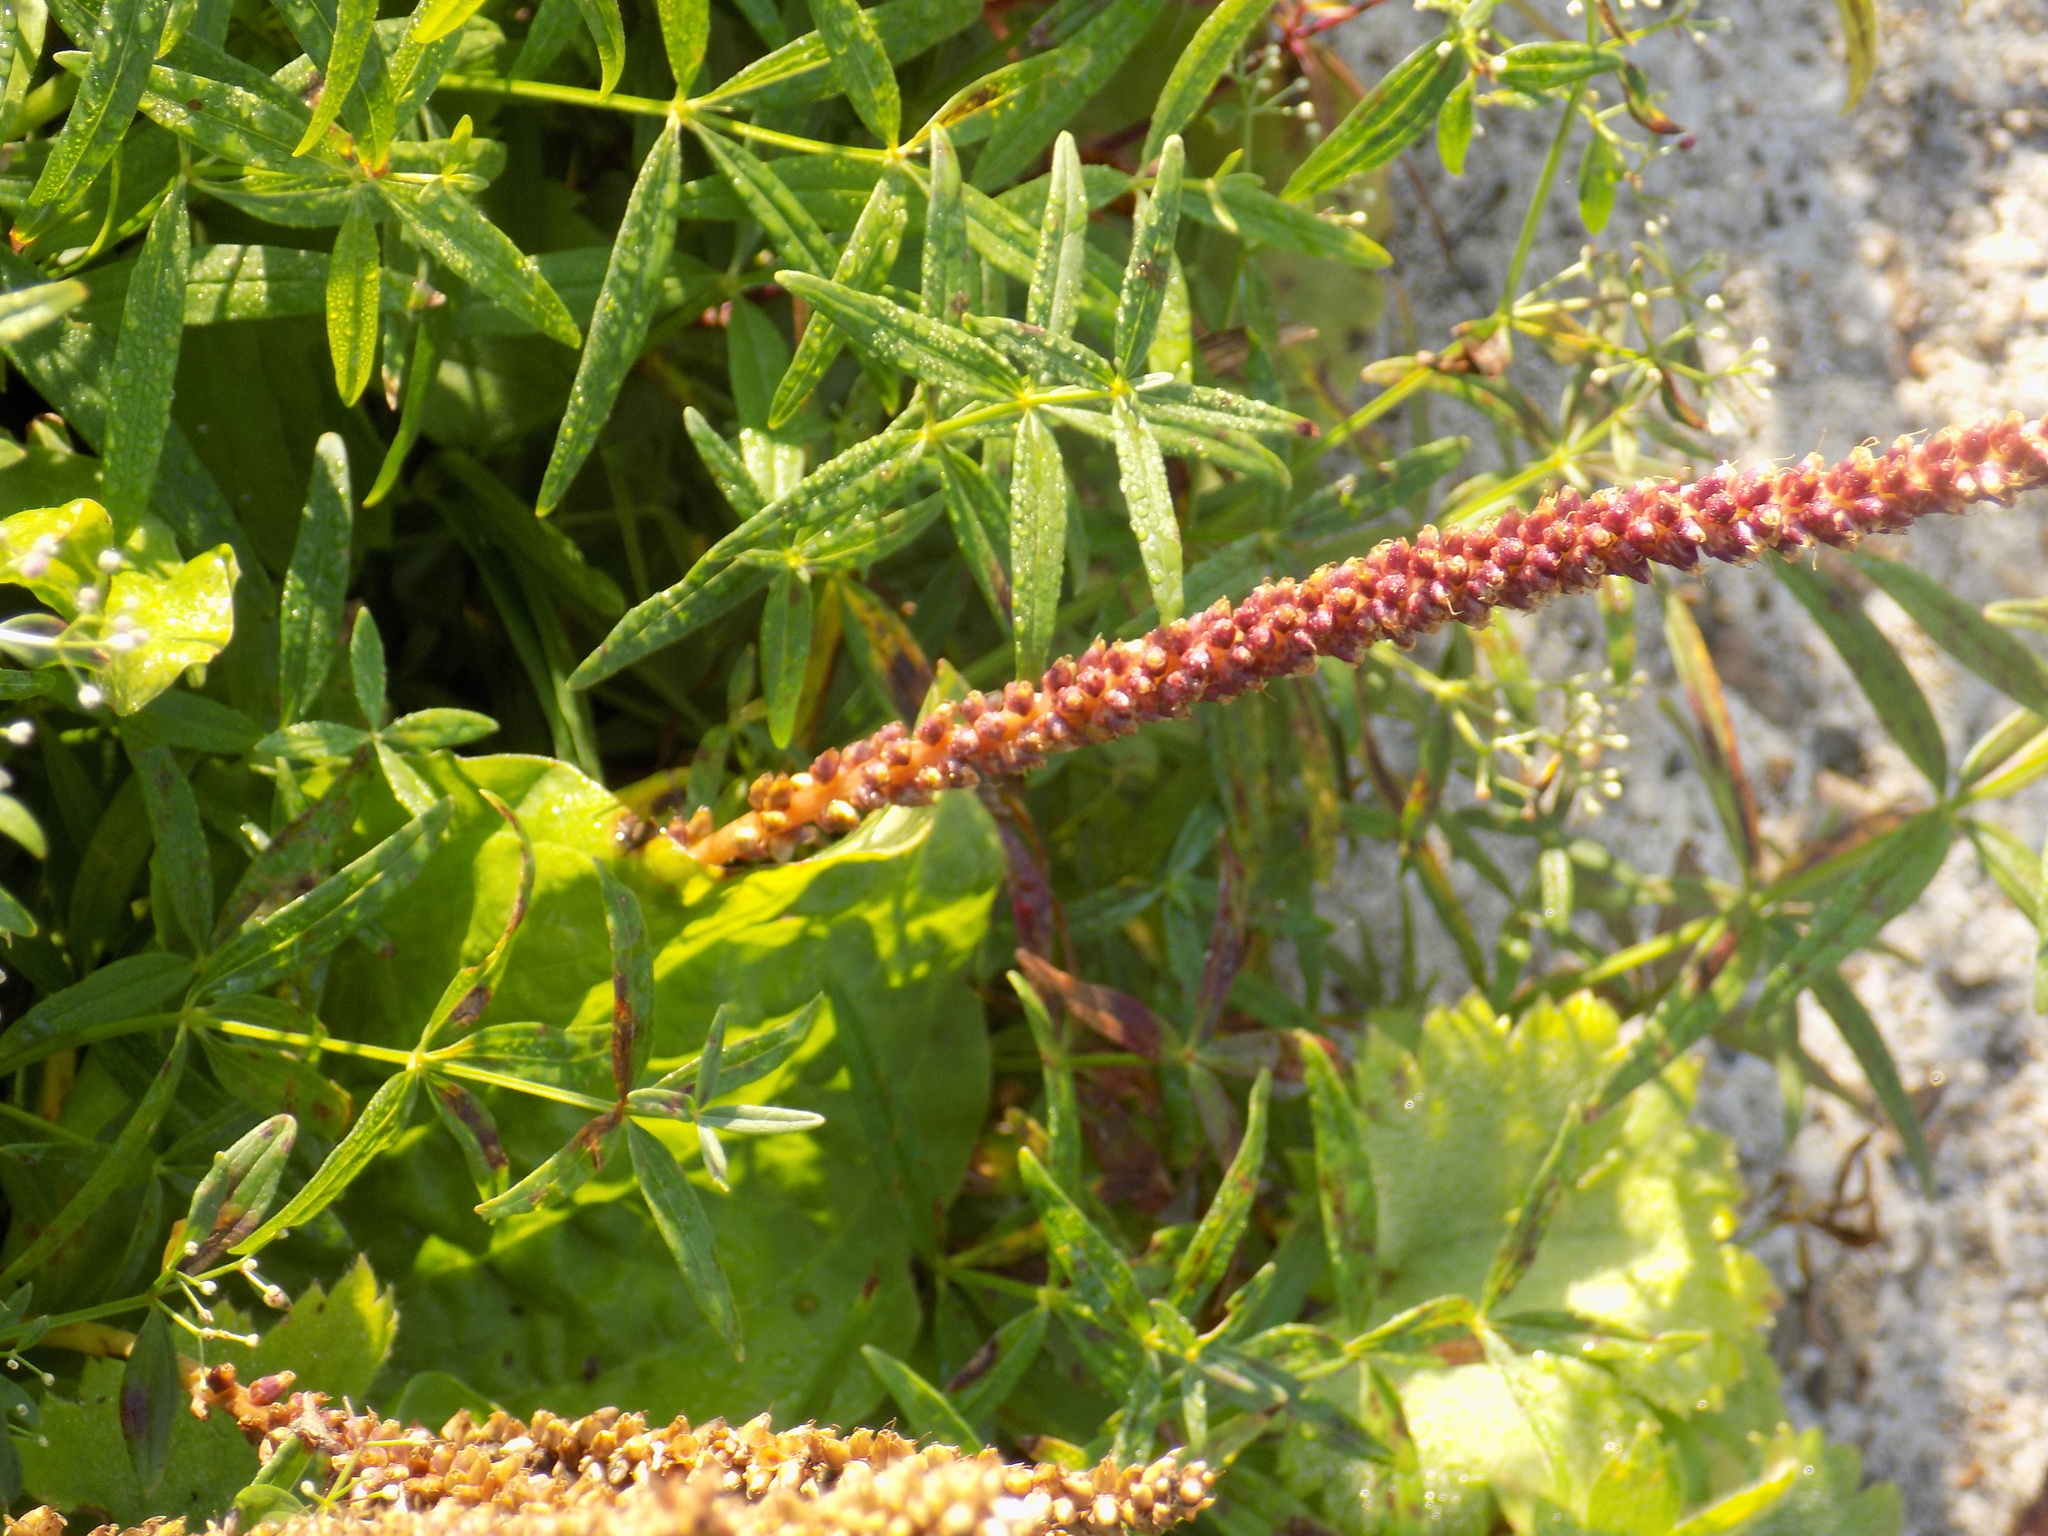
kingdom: Plantae
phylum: Tracheophyta
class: Magnoliopsida
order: Lamiales
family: Plantaginaceae
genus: Plantago
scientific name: Plantago major
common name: Common plantain
